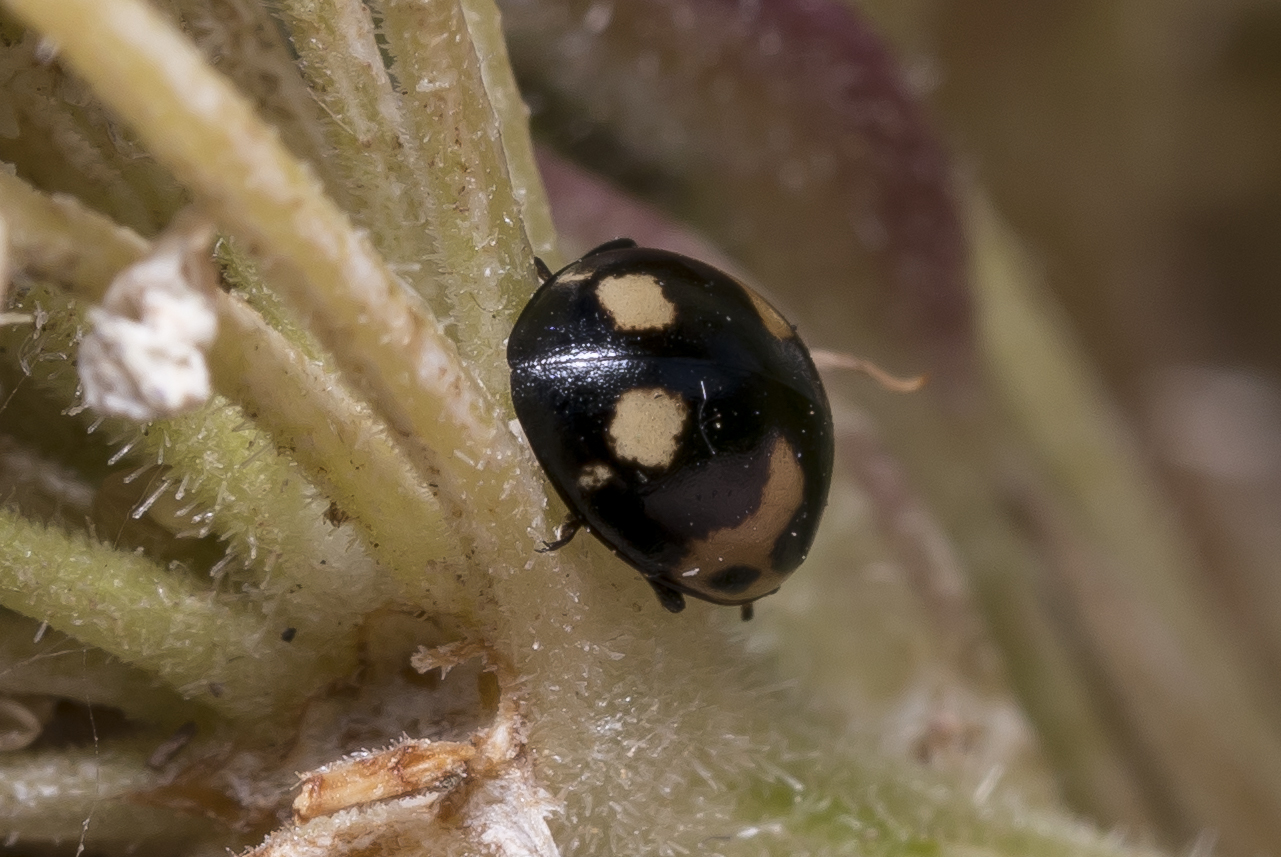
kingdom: Animalia
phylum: Arthropoda
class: Insecta
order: Coleoptera
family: Coccinellidae
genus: Ceratomegilla
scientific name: Ceratomegilla alpina
